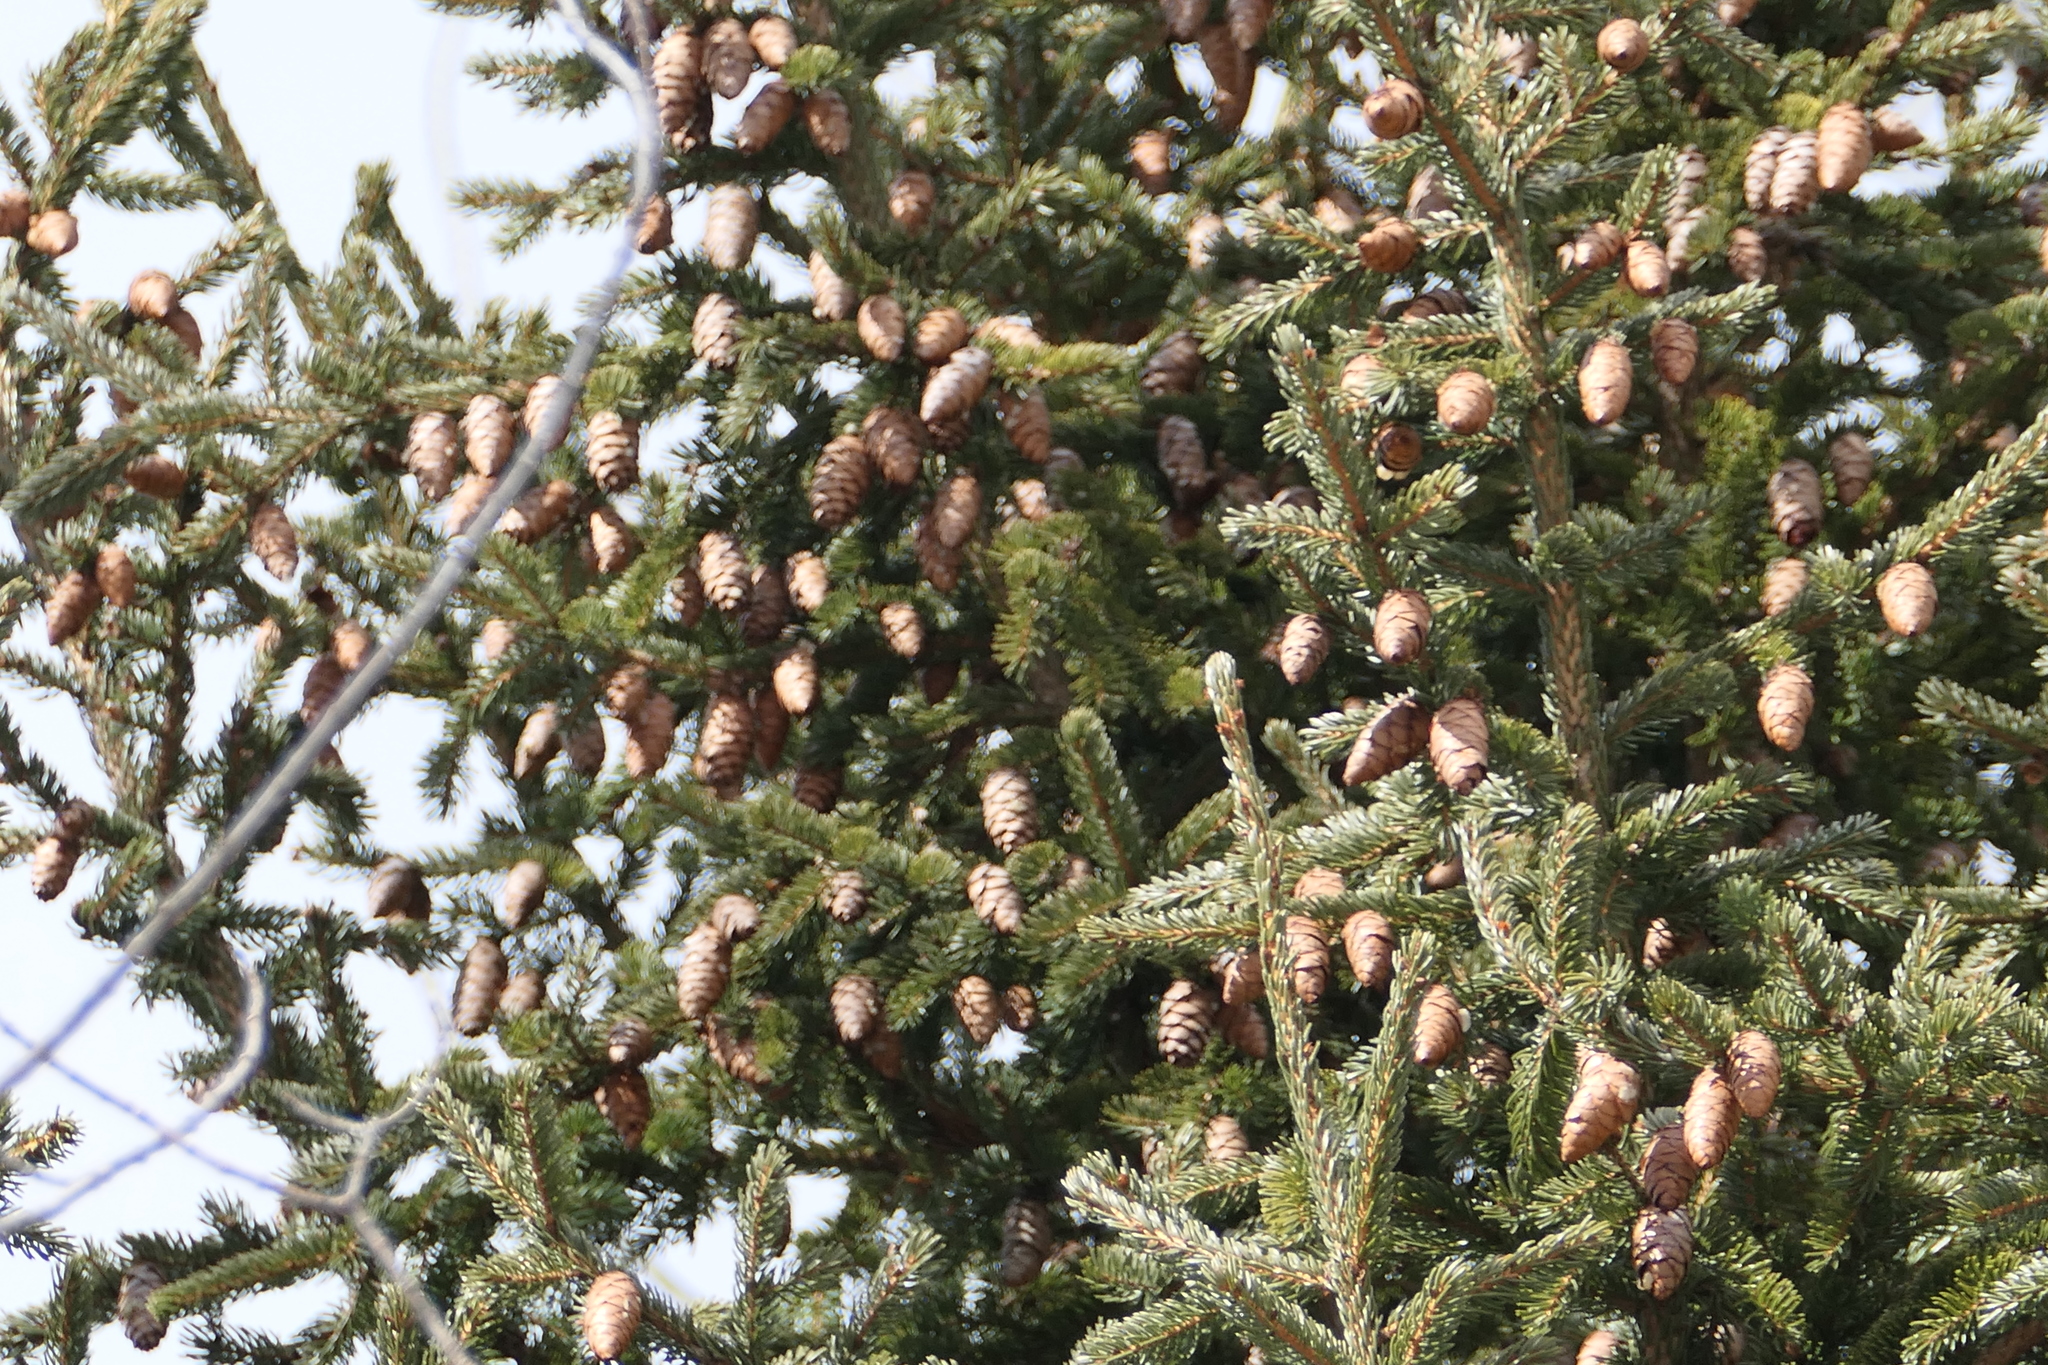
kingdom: Plantae
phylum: Tracheophyta
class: Pinopsida
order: Pinales
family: Pinaceae
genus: Picea
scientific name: Picea glauca
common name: White spruce
